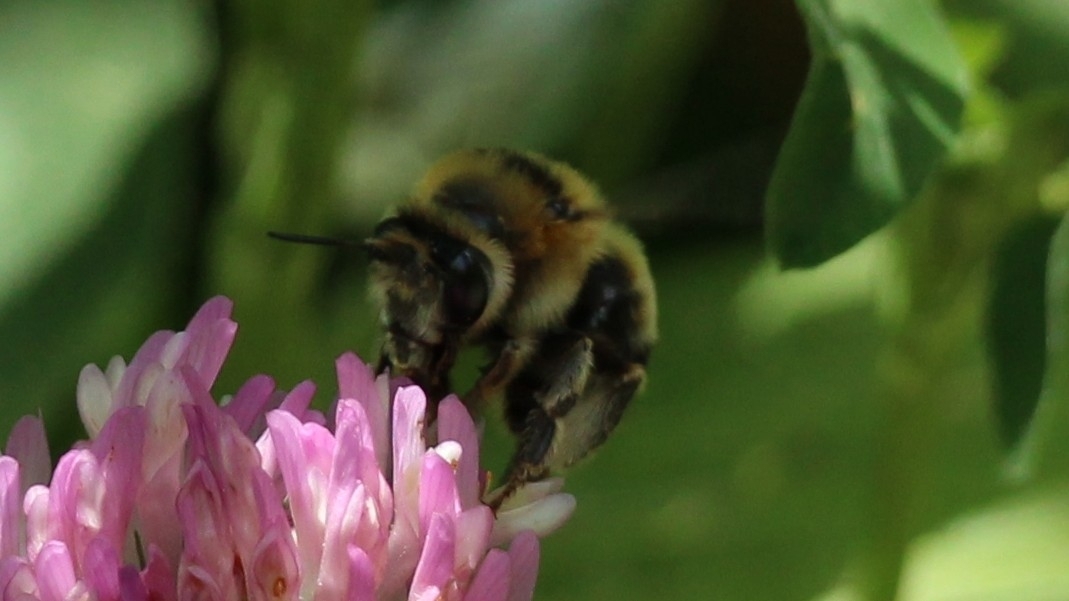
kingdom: Animalia
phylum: Arthropoda
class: Insecta
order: Hymenoptera
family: Apidae
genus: Anthophora
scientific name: Anthophora aestivalis
